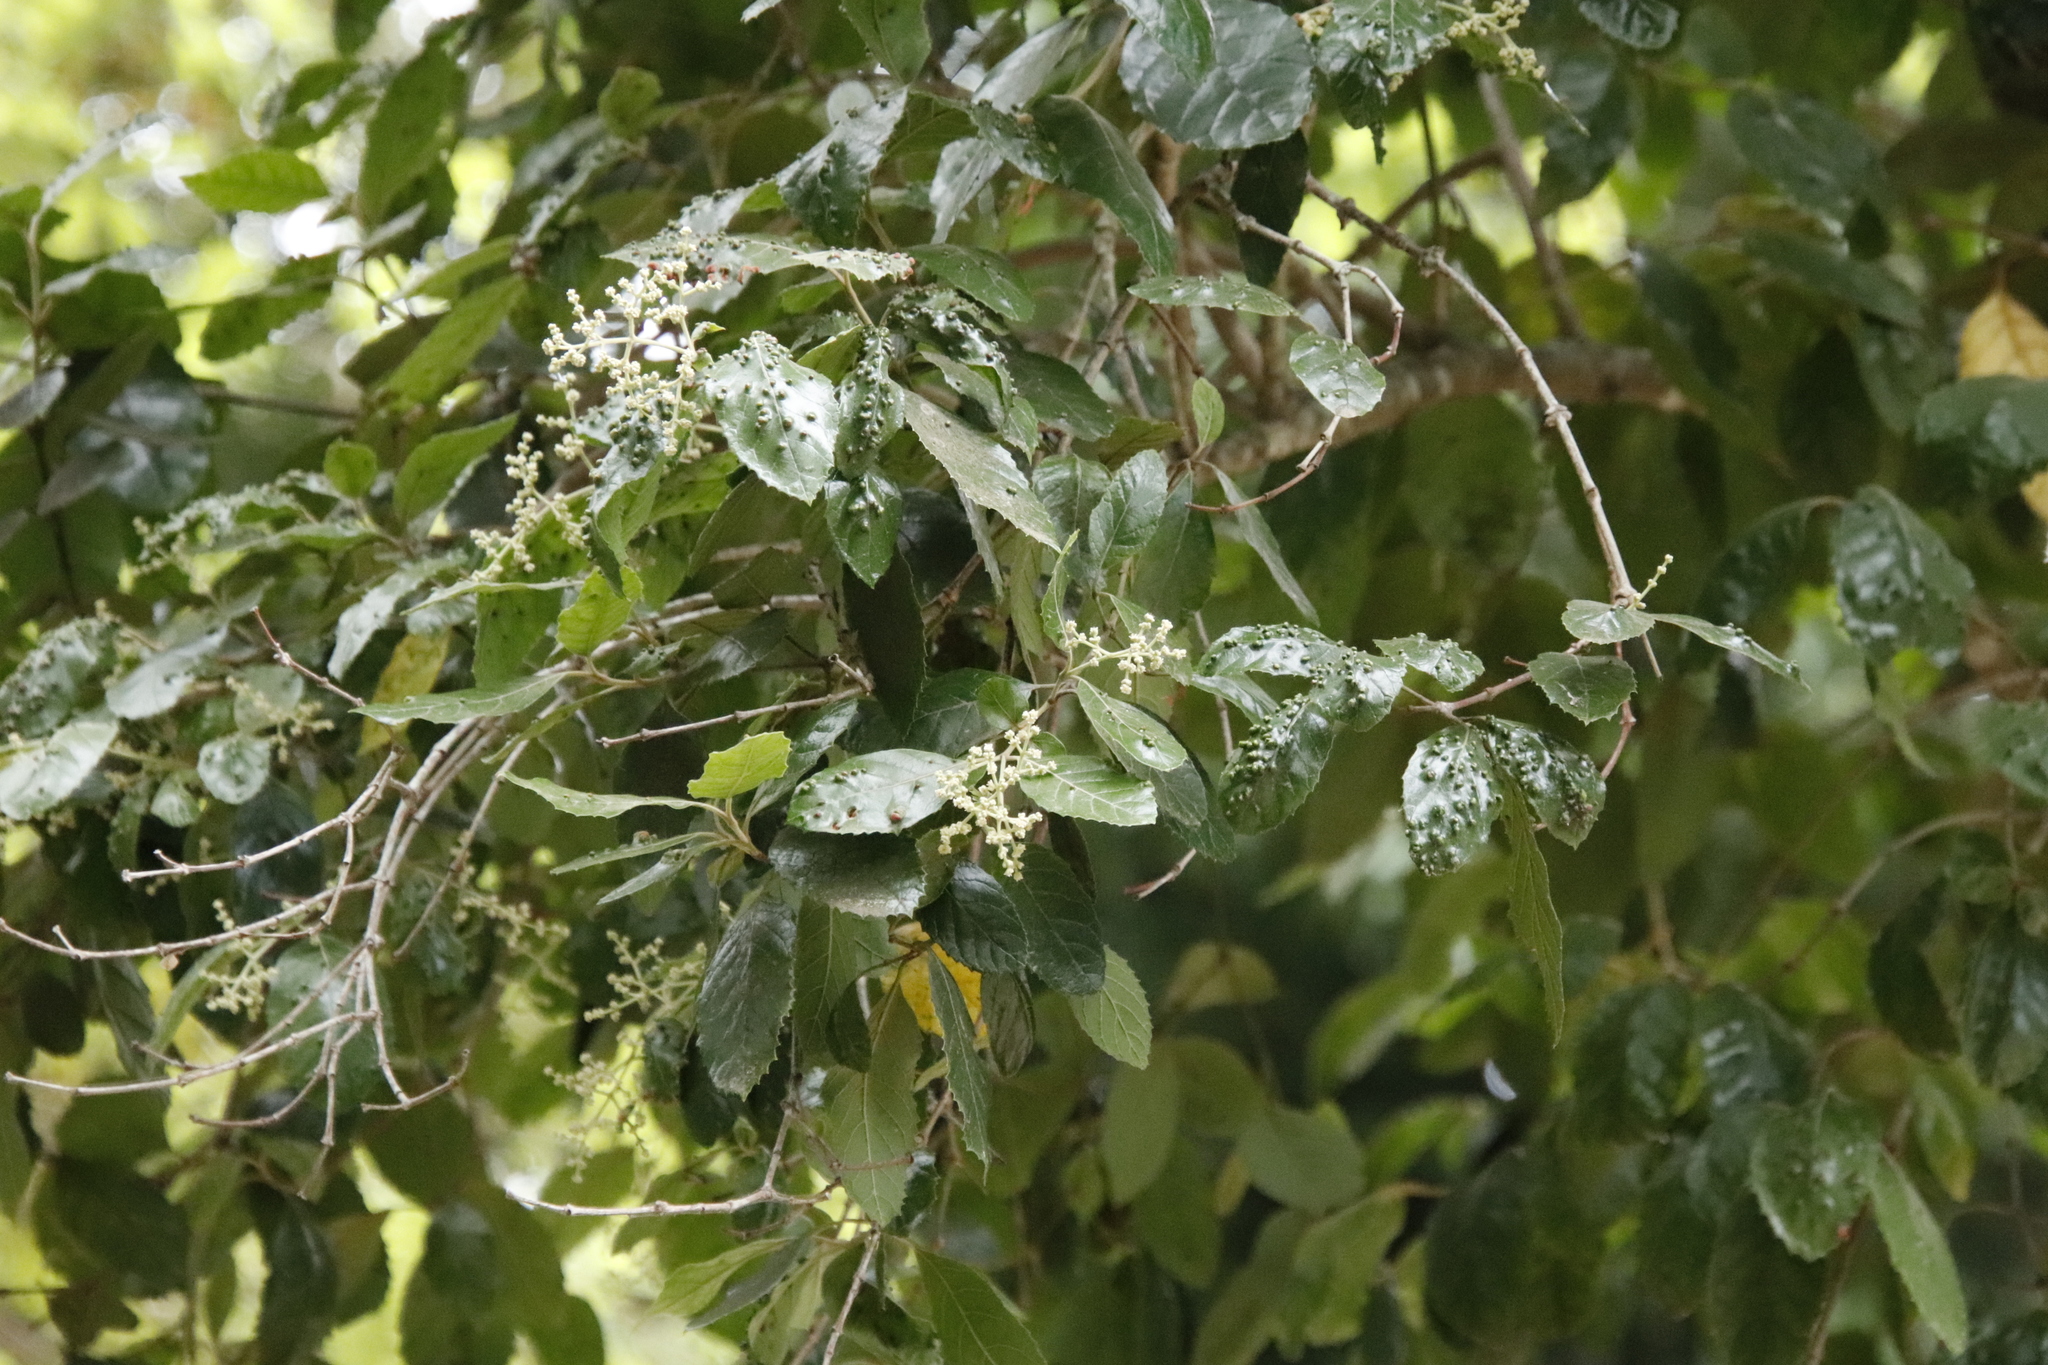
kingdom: Plantae
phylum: Tracheophyta
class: Magnoliopsida
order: Cornales
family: Curtisiaceae
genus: Curtisia
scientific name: Curtisia dentata
